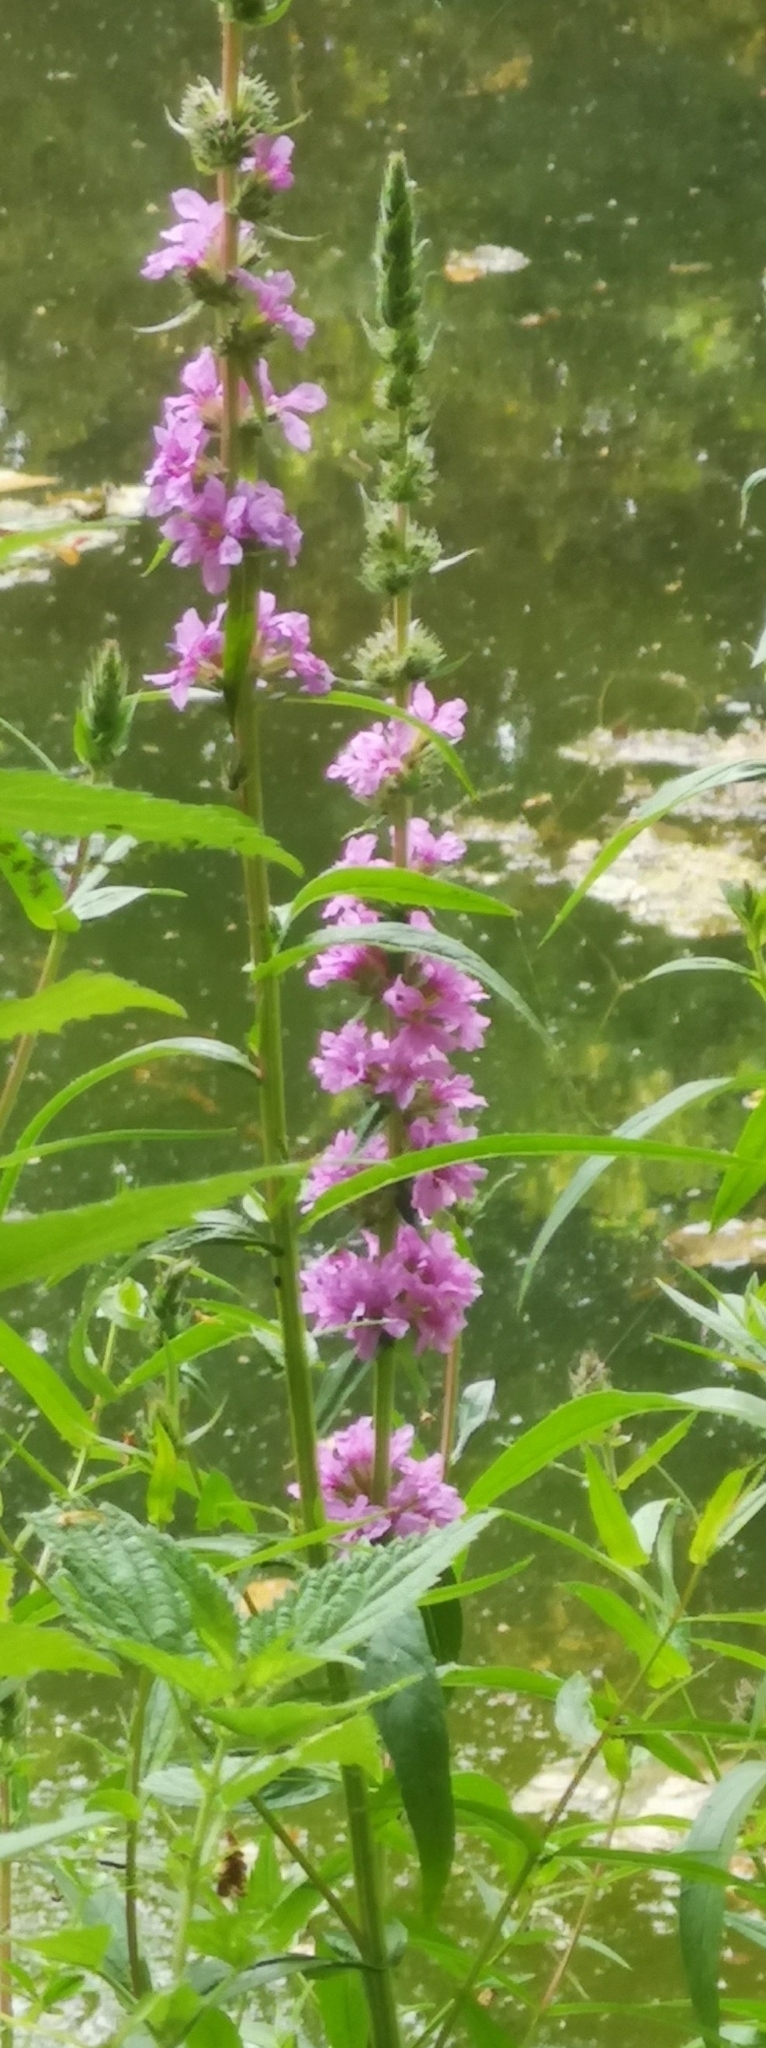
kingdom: Plantae
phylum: Tracheophyta
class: Magnoliopsida
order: Myrtales
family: Lythraceae
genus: Lythrum
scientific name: Lythrum salicaria
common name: Purple loosestrife
